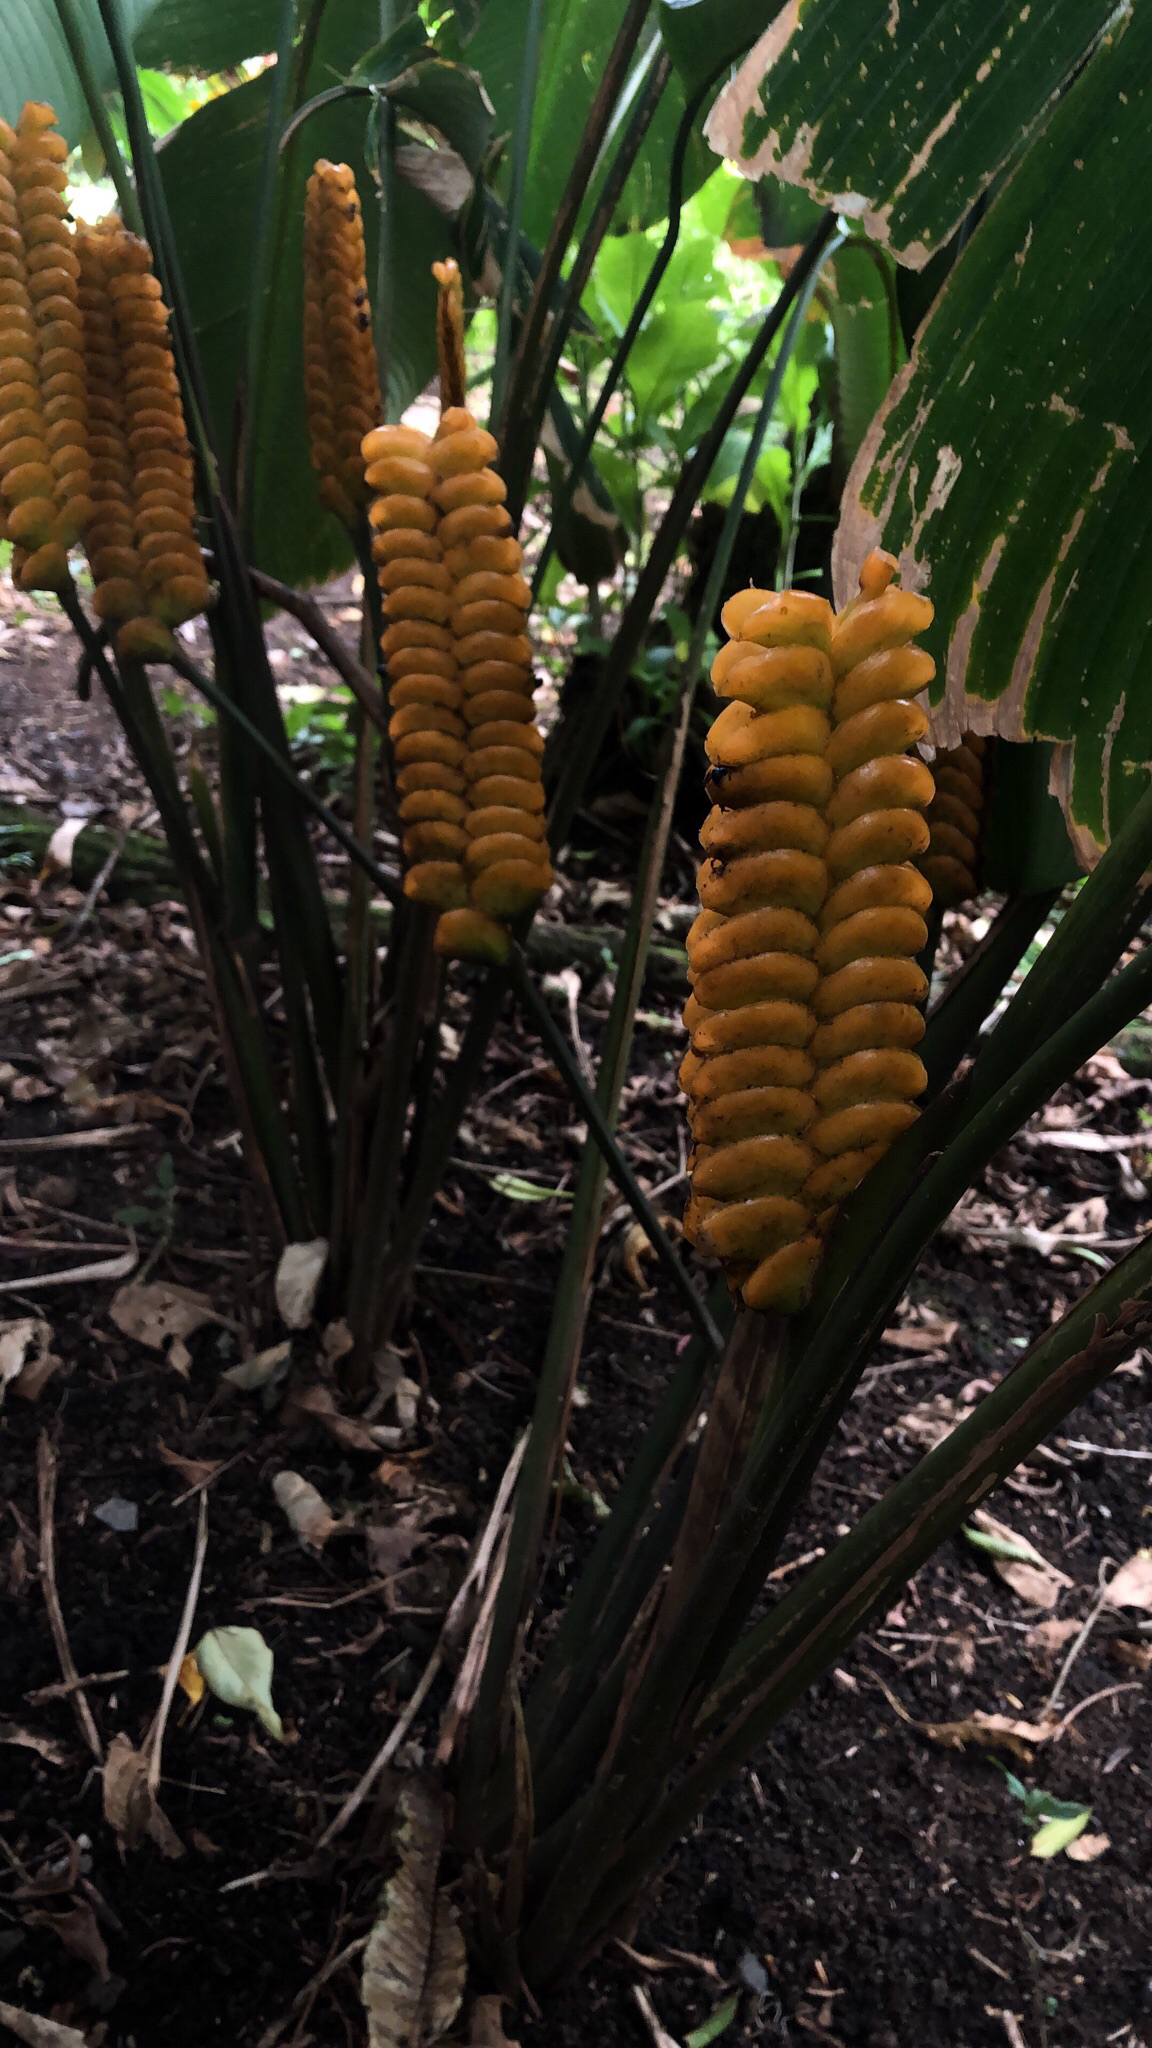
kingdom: Plantae
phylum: Tracheophyta
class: Liliopsida
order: Zingiberales
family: Marantaceae
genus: Calathea
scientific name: Calathea crotalifera
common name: Rattlesnake plant
